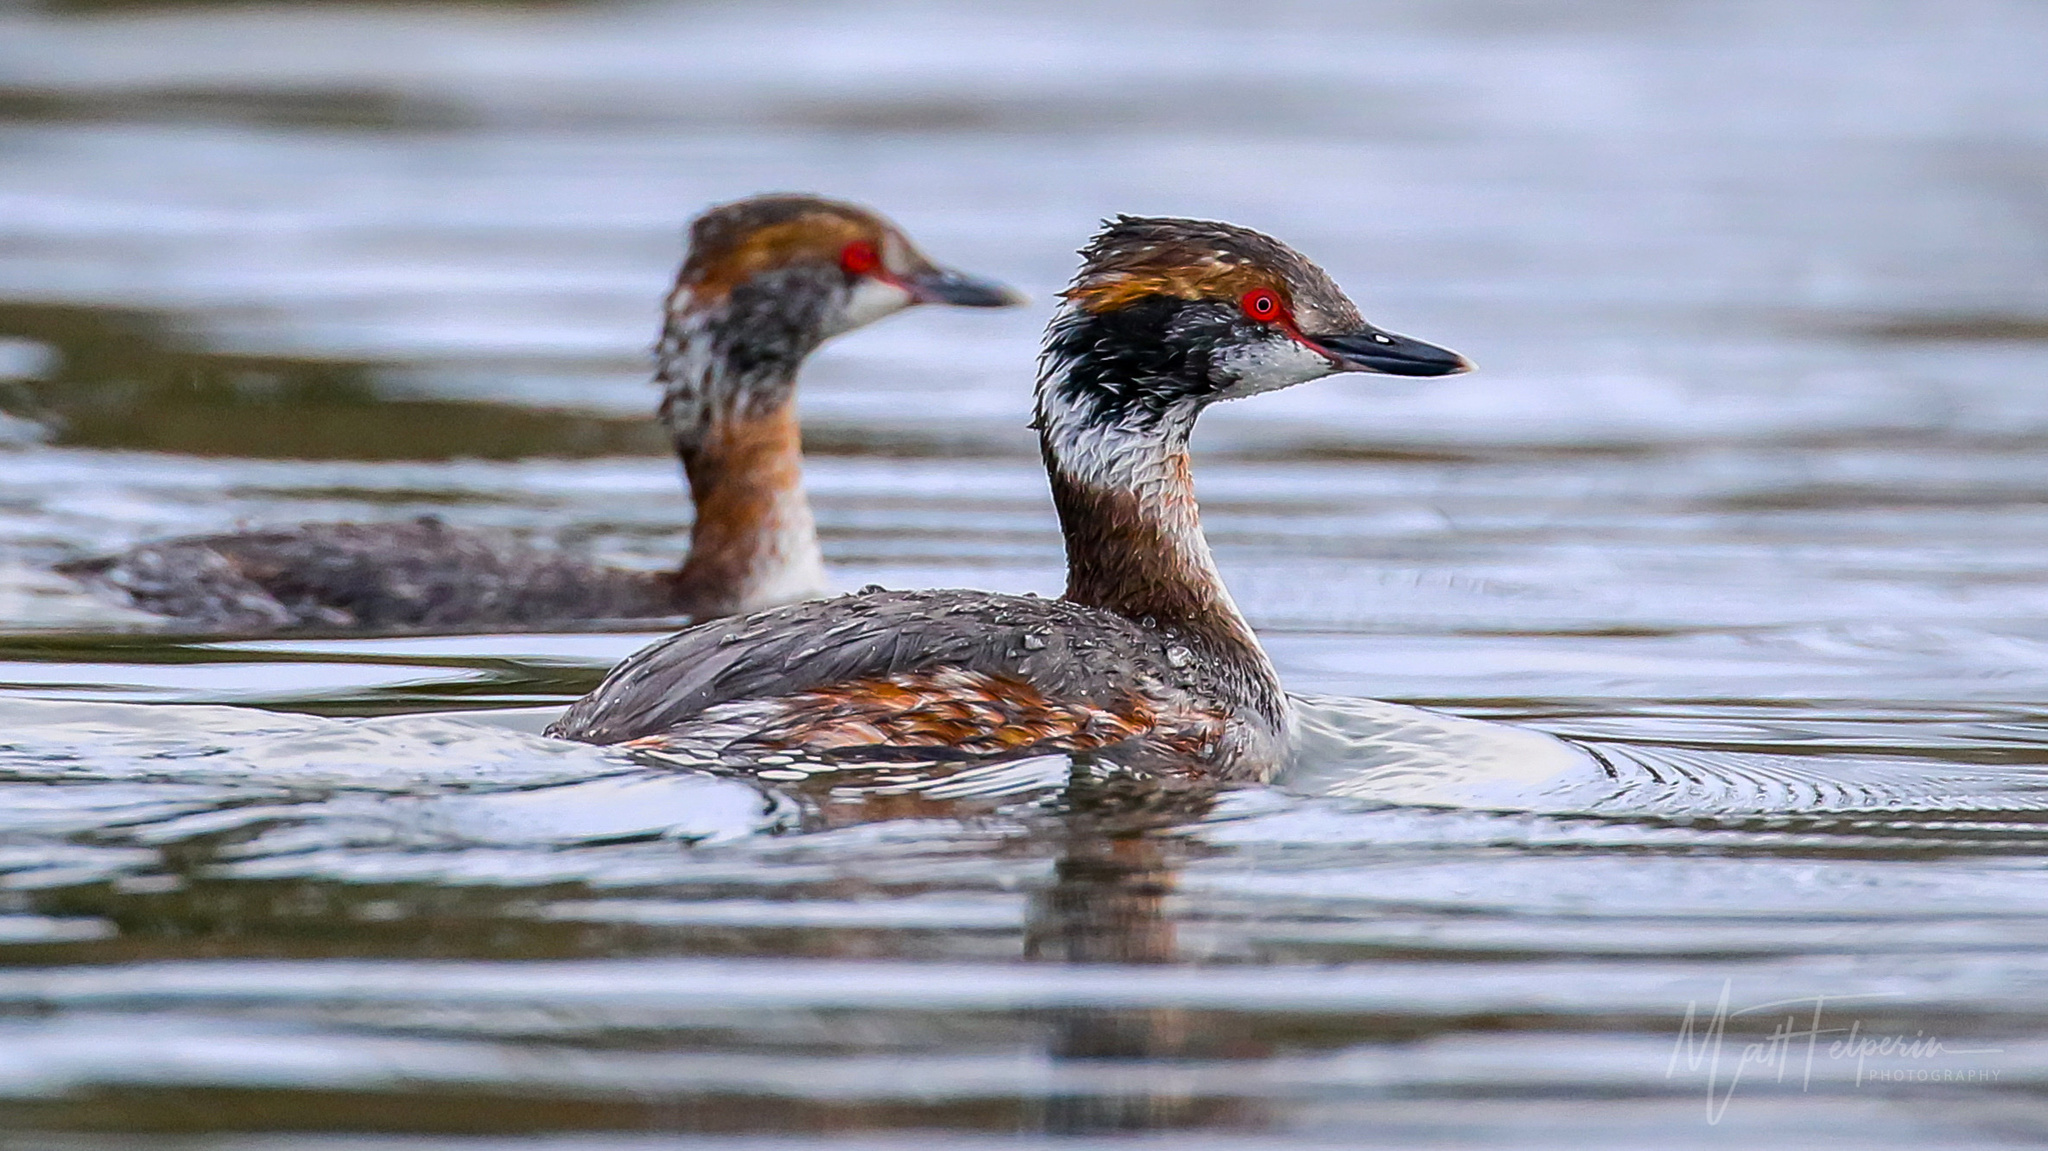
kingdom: Animalia
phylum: Chordata
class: Aves
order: Podicipediformes
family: Podicipedidae
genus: Podiceps
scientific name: Podiceps auritus
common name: Horned grebe
